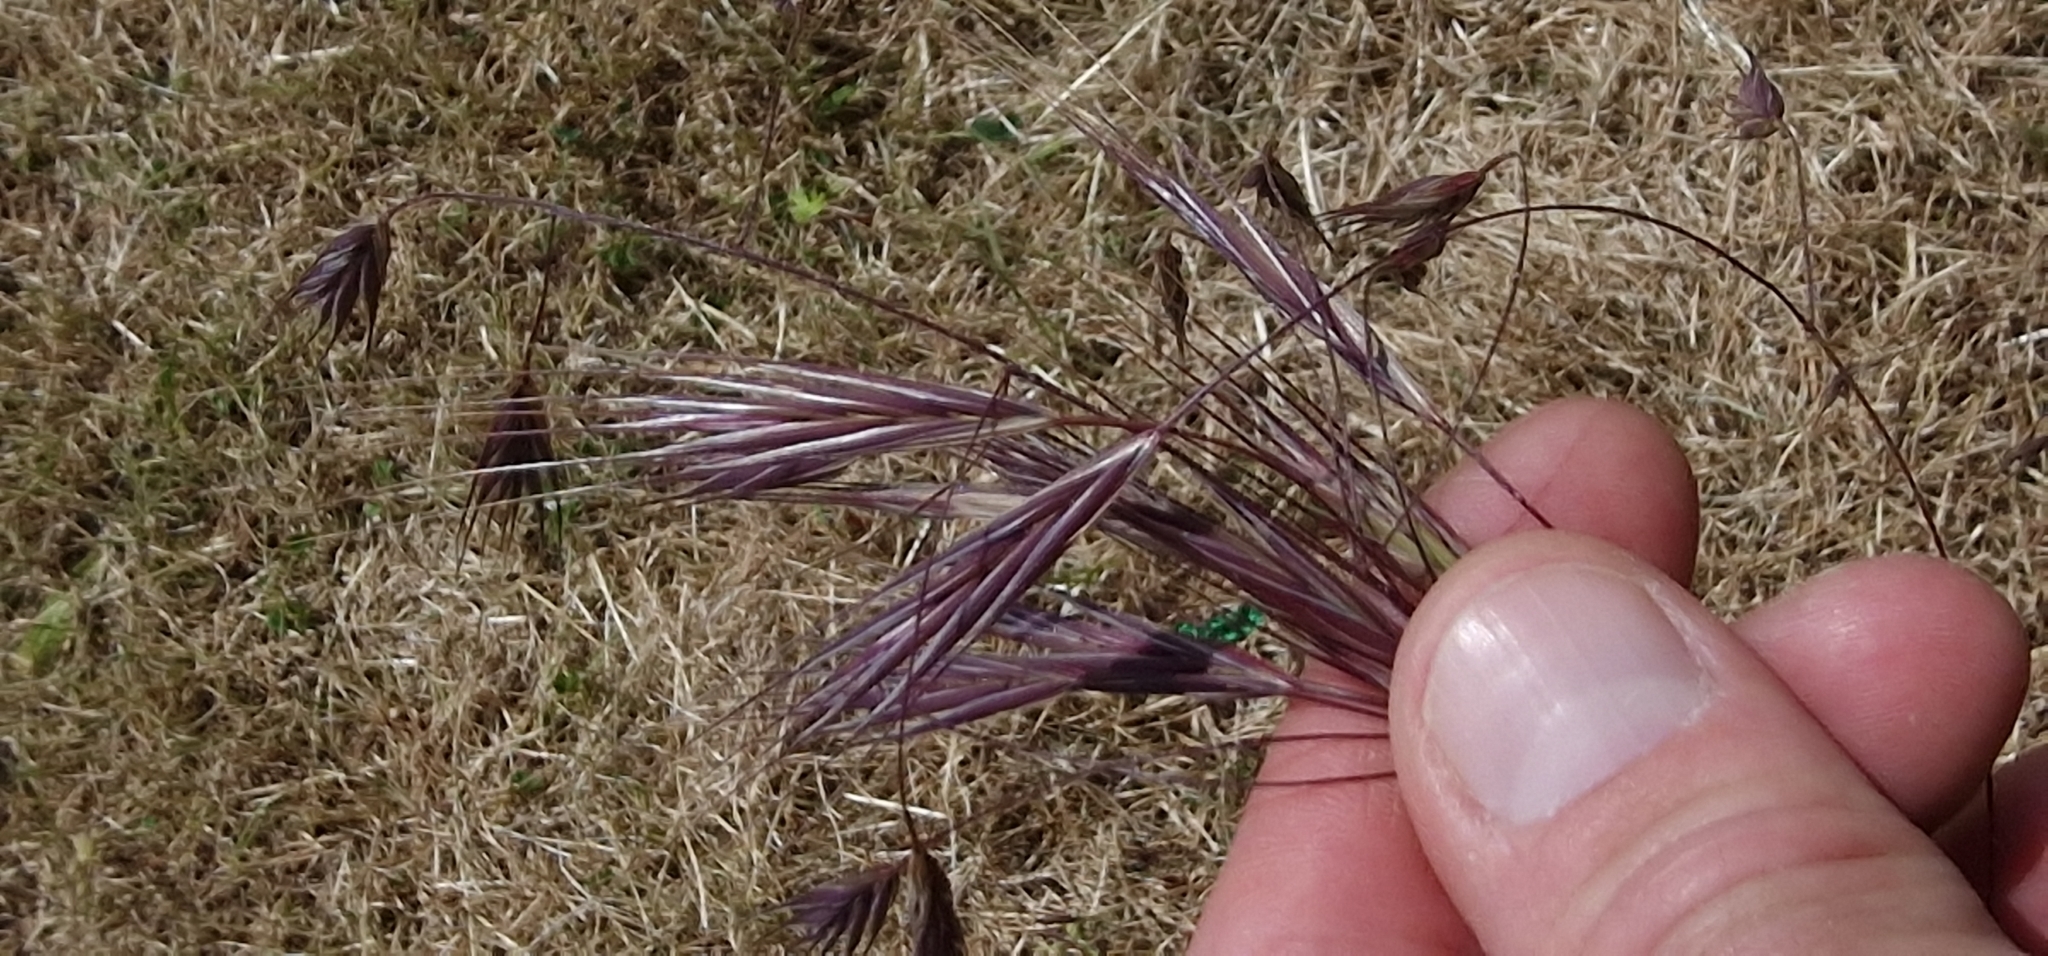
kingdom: Plantae
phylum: Tracheophyta
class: Liliopsida
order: Poales
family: Poaceae
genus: Bromus
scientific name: Bromus sterilis
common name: Poverty brome
